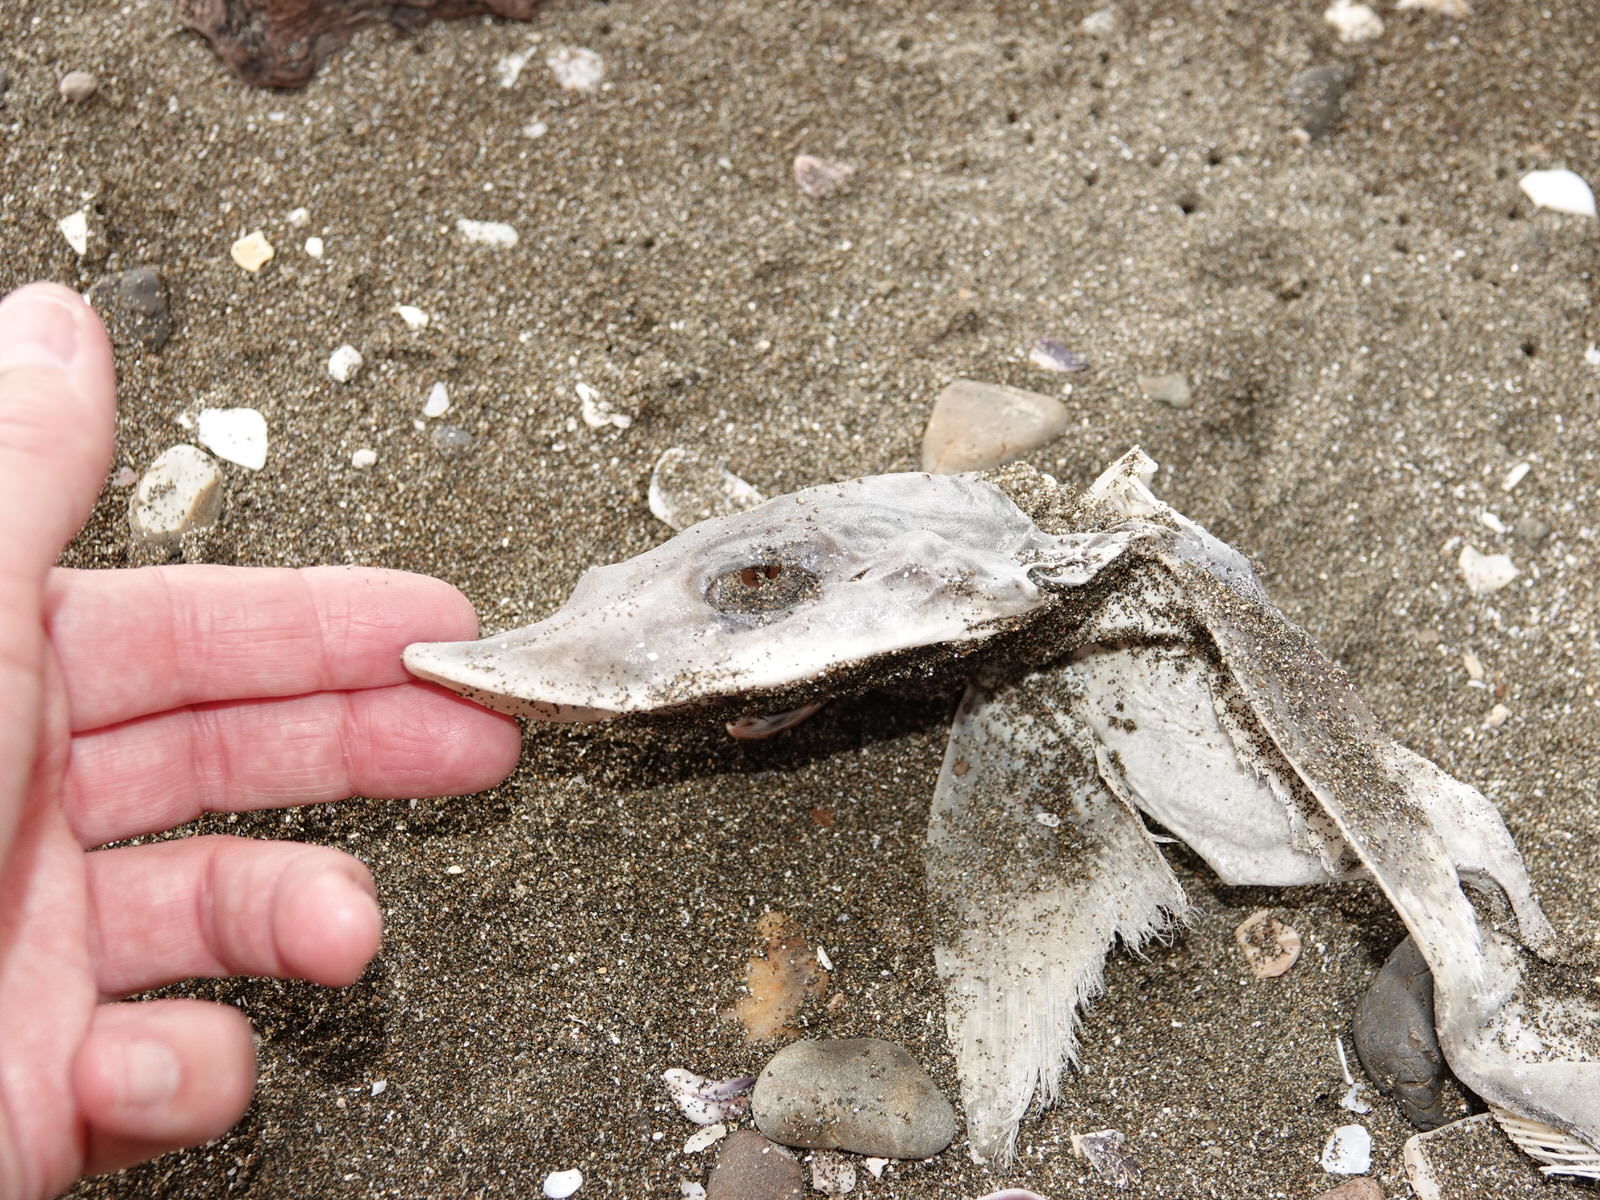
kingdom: Animalia
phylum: Chordata
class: Elasmobranchii
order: Carcharhiniformes
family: Triakidae
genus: Mustelus
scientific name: Mustelus lenticulatus
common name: Gummy shark
